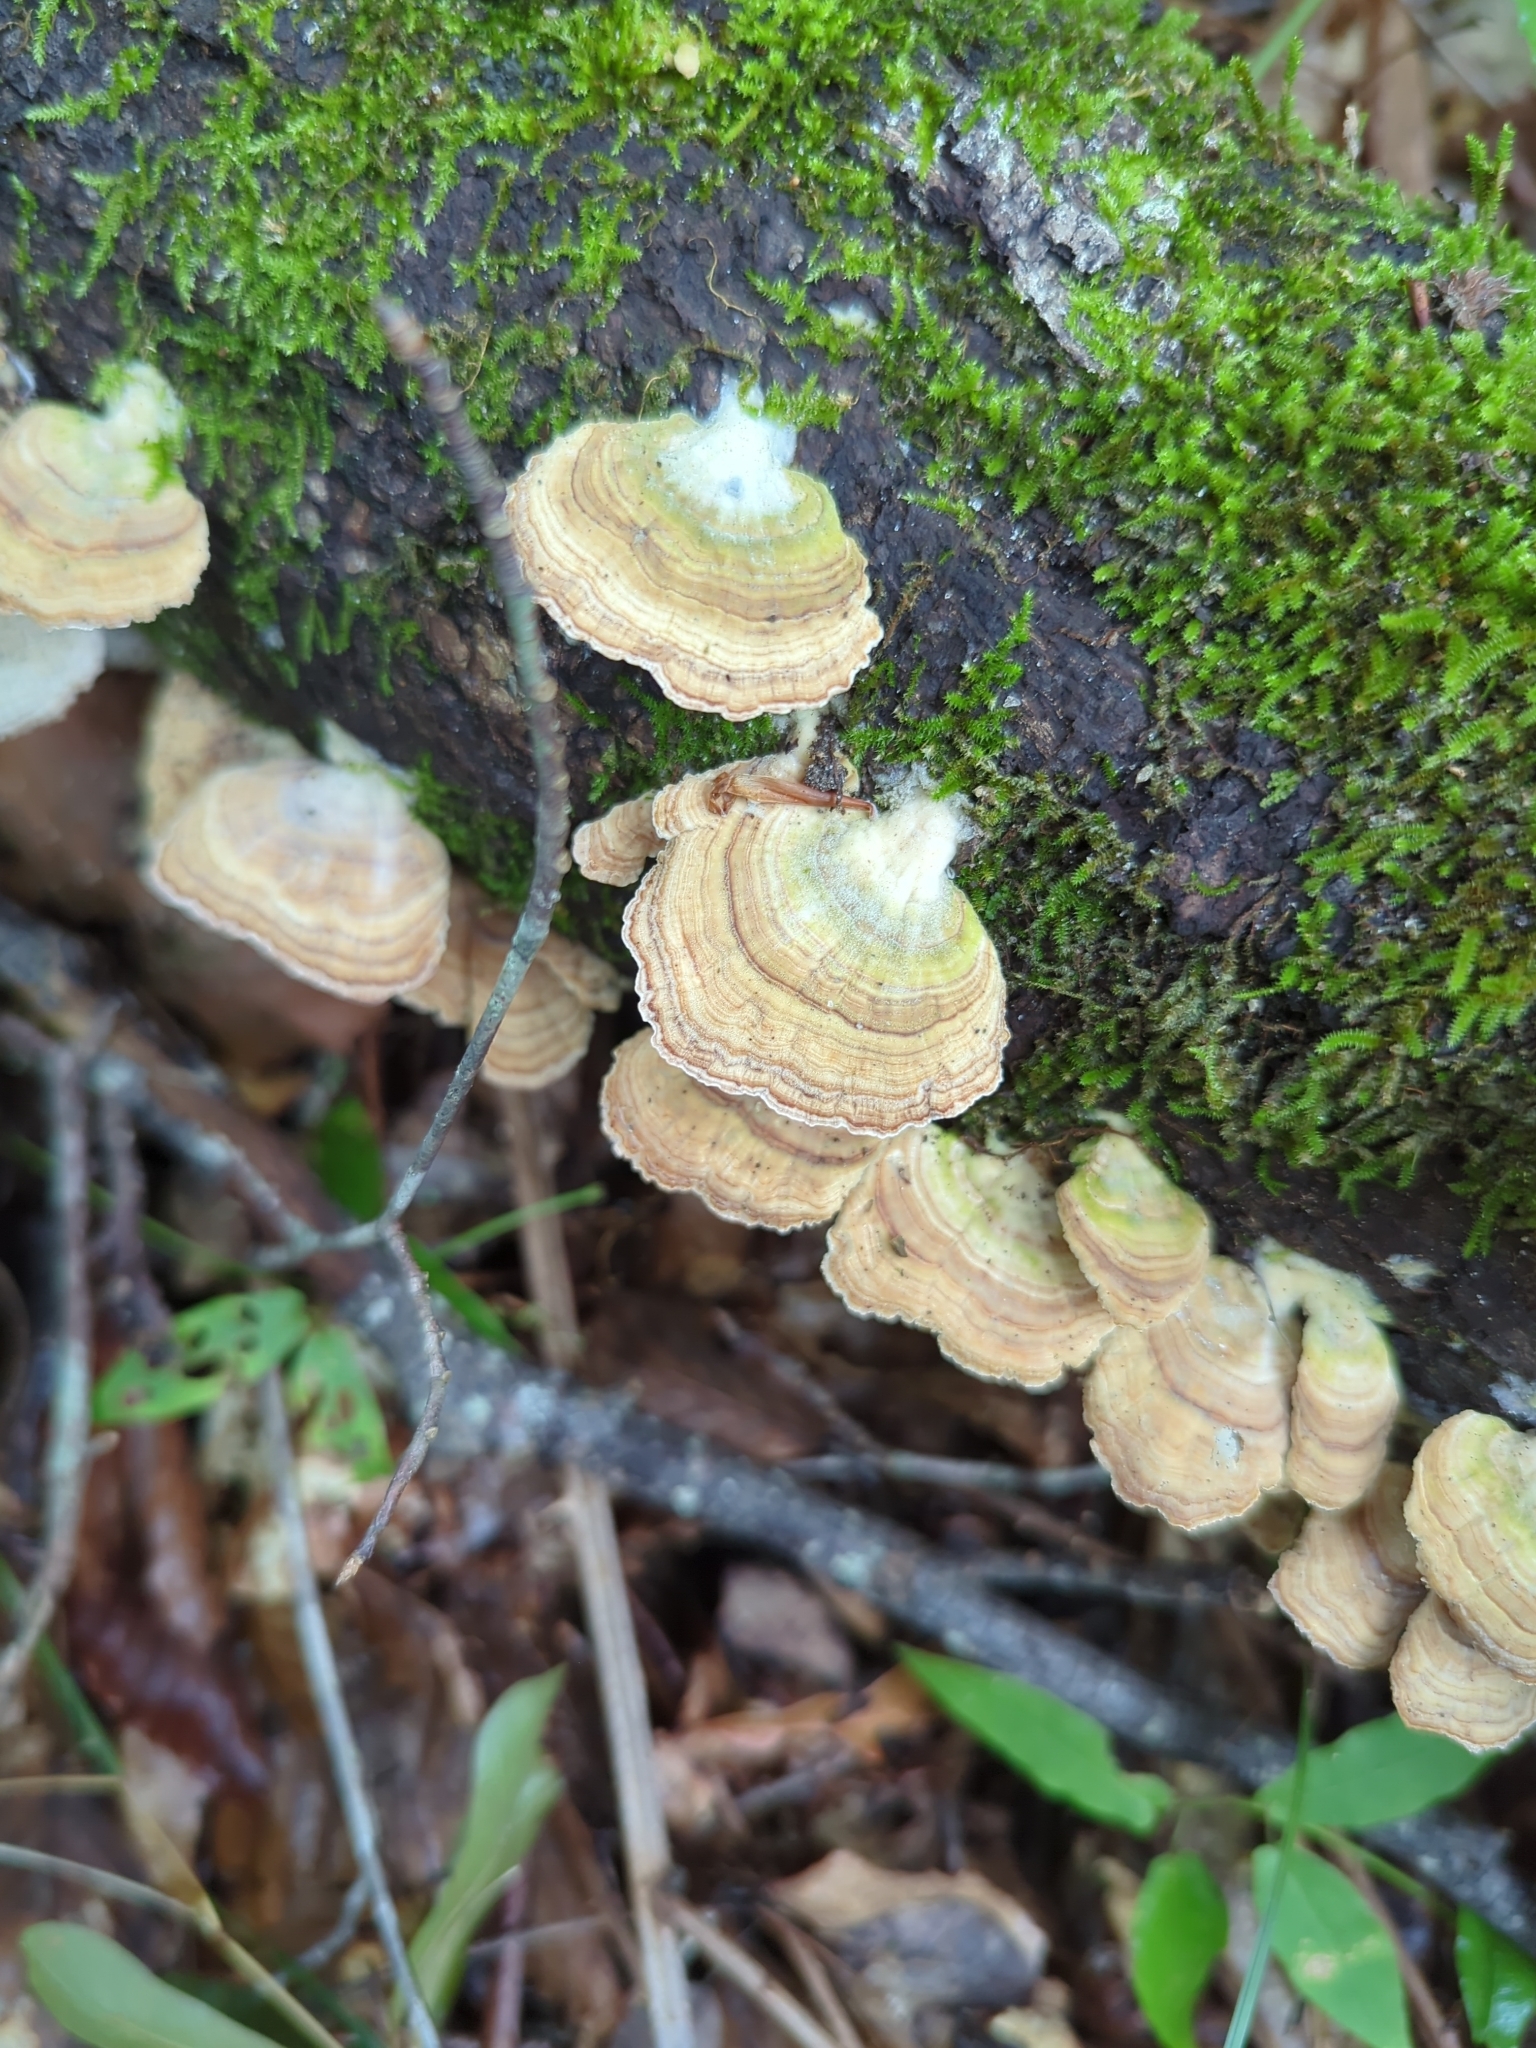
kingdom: Fungi
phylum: Basidiomycota
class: Agaricomycetes
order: Hymenochaetales
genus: Trichaptum
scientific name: Trichaptum biforme
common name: Violet-toothed polypore
